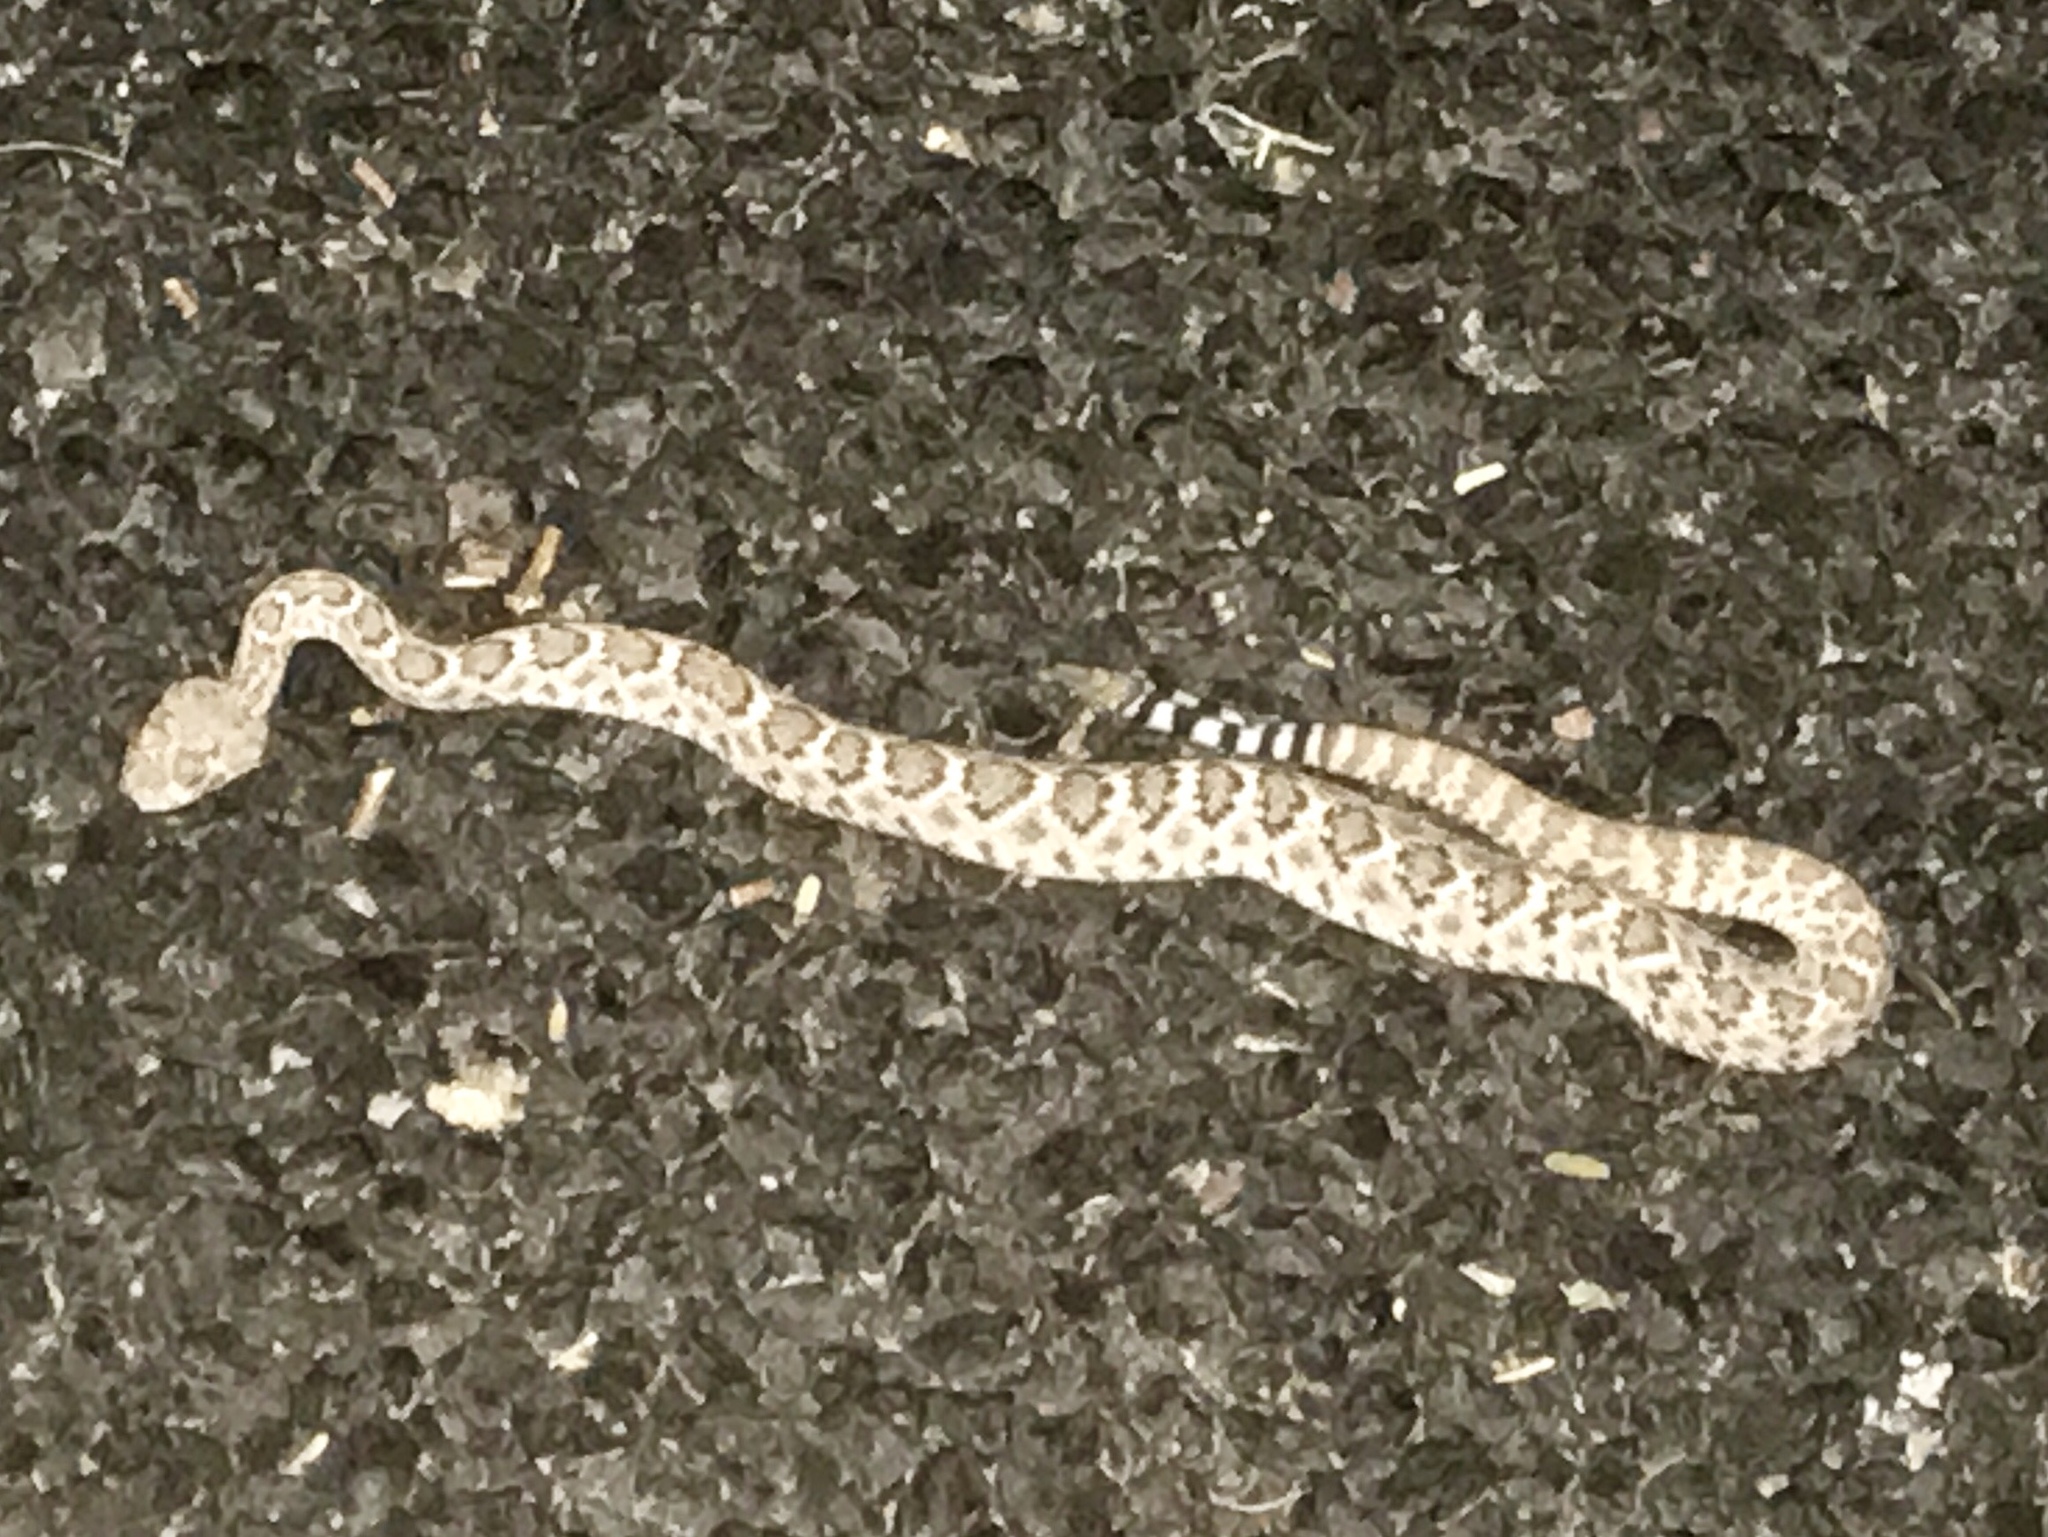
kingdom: Animalia
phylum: Chordata
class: Squamata
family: Viperidae
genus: Crotalus
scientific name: Crotalus atrox
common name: Western diamond-backed rattlesnake
